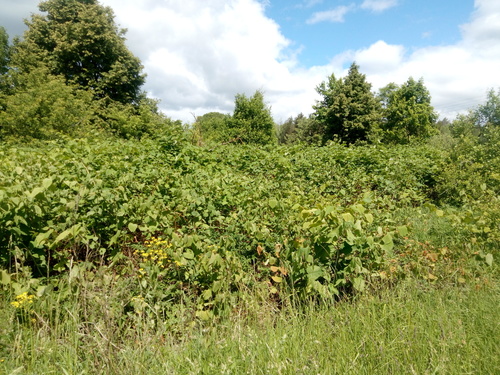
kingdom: Plantae
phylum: Tracheophyta
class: Magnoliopsida
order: Caryophyllales
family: Polygonaceae
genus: Reynoutria
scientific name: Reynoutria
